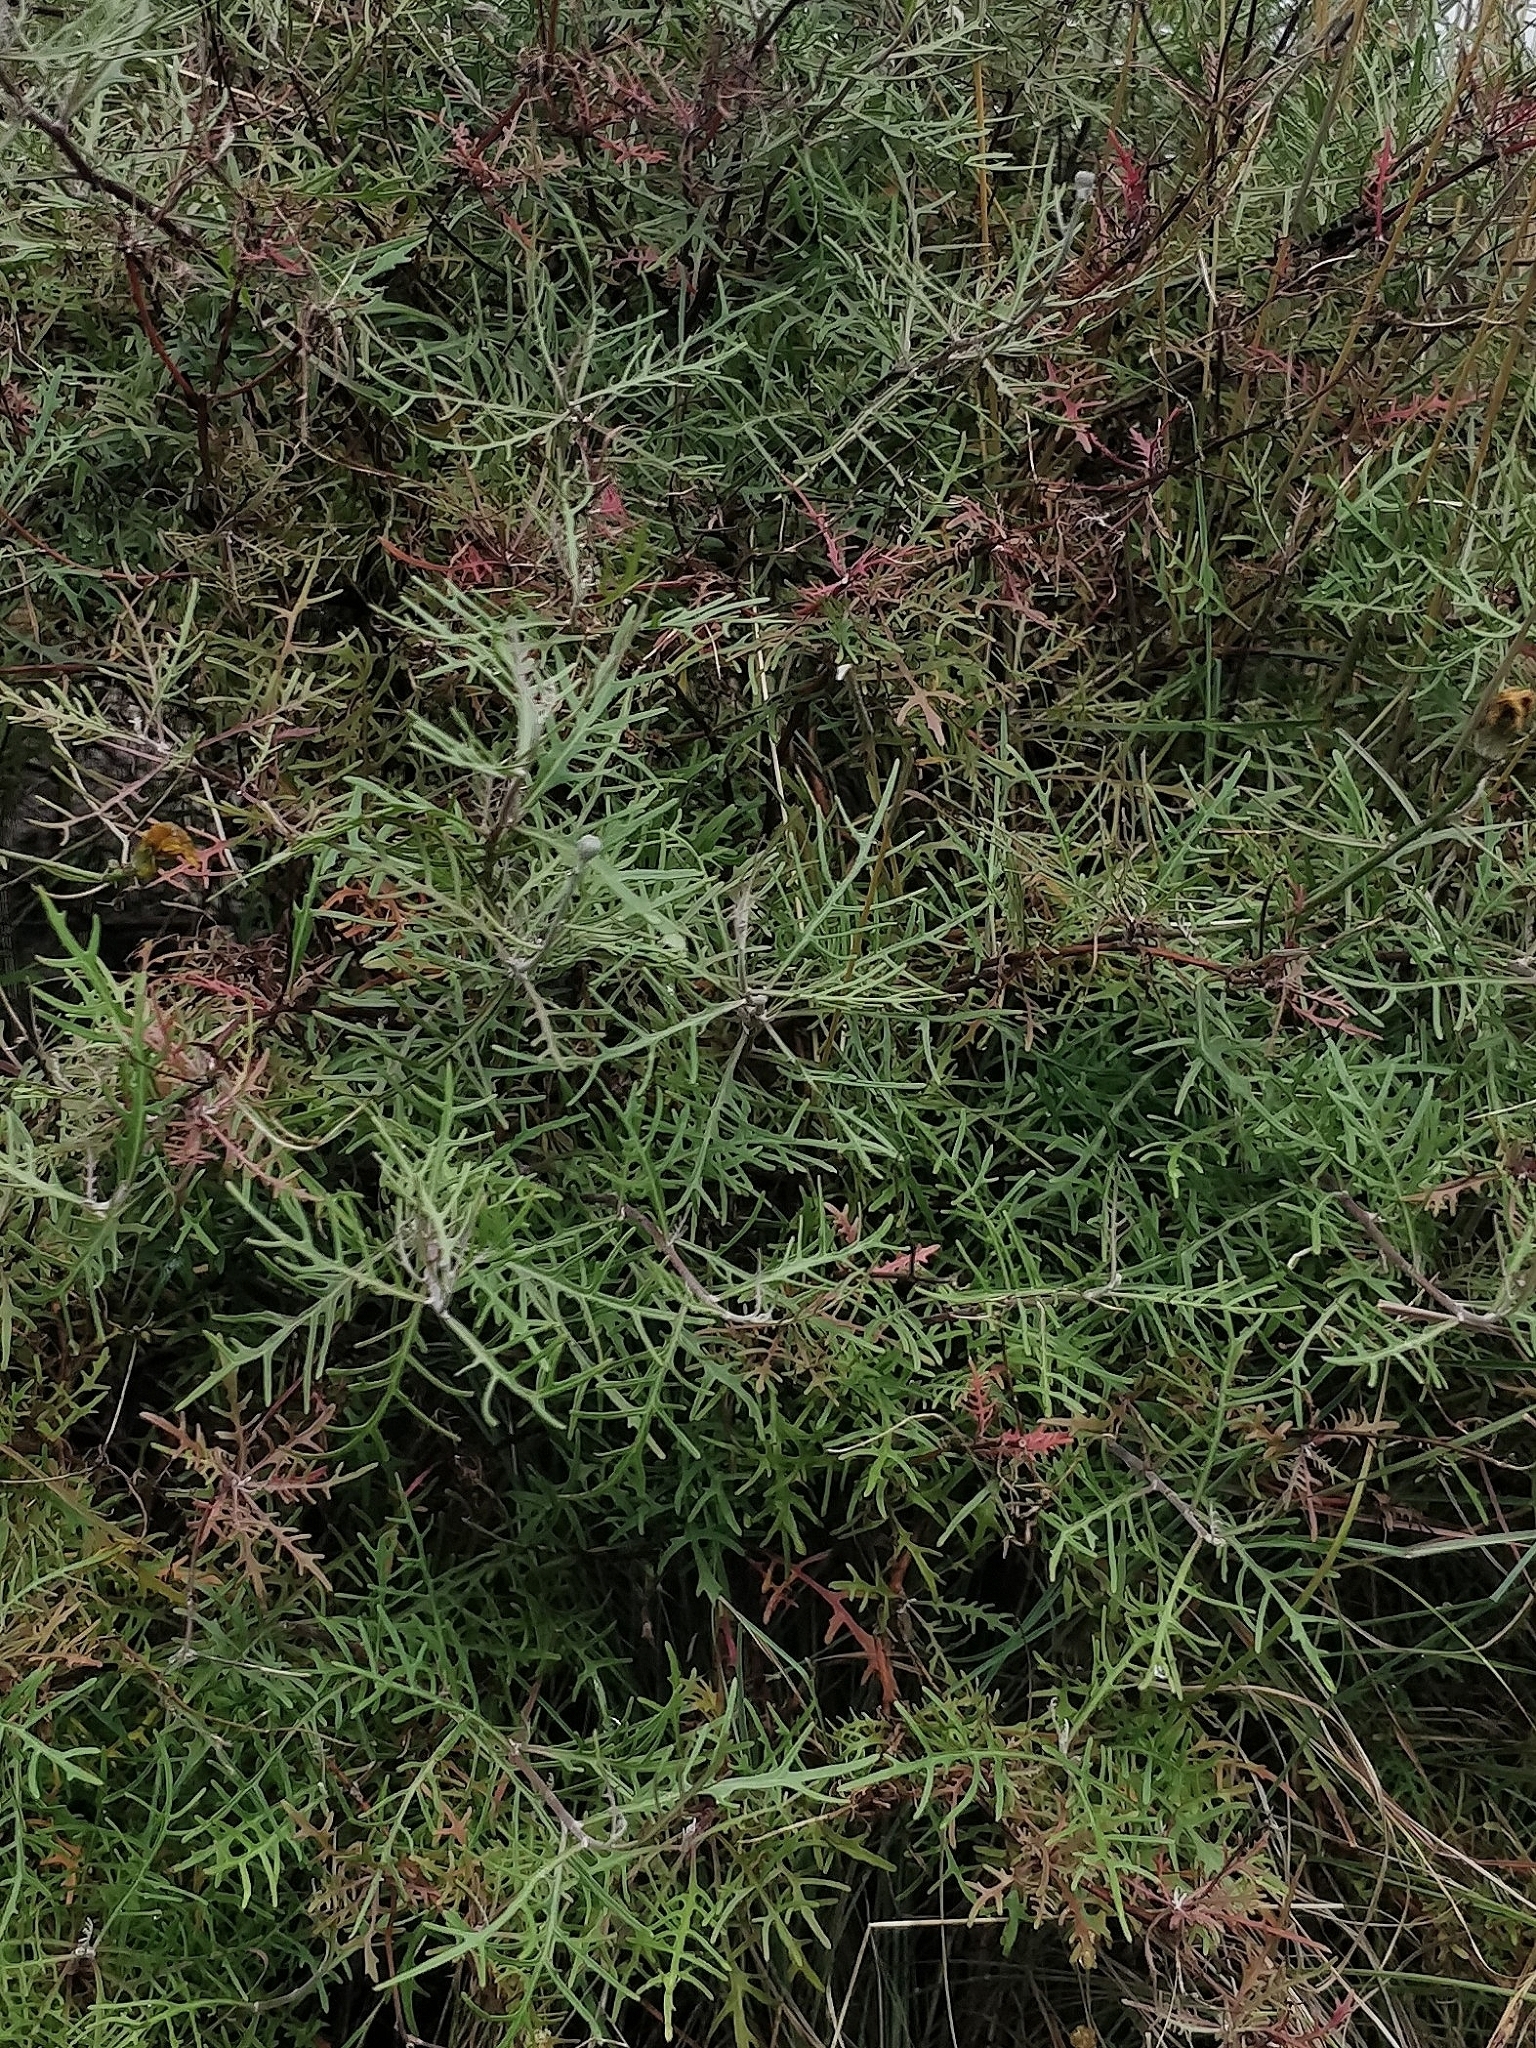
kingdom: Plantae
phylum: Tracheophyta
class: Magnoliopsida
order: Asterales
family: Asteraceae
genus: Tolpis
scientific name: Tolpis succulenta
